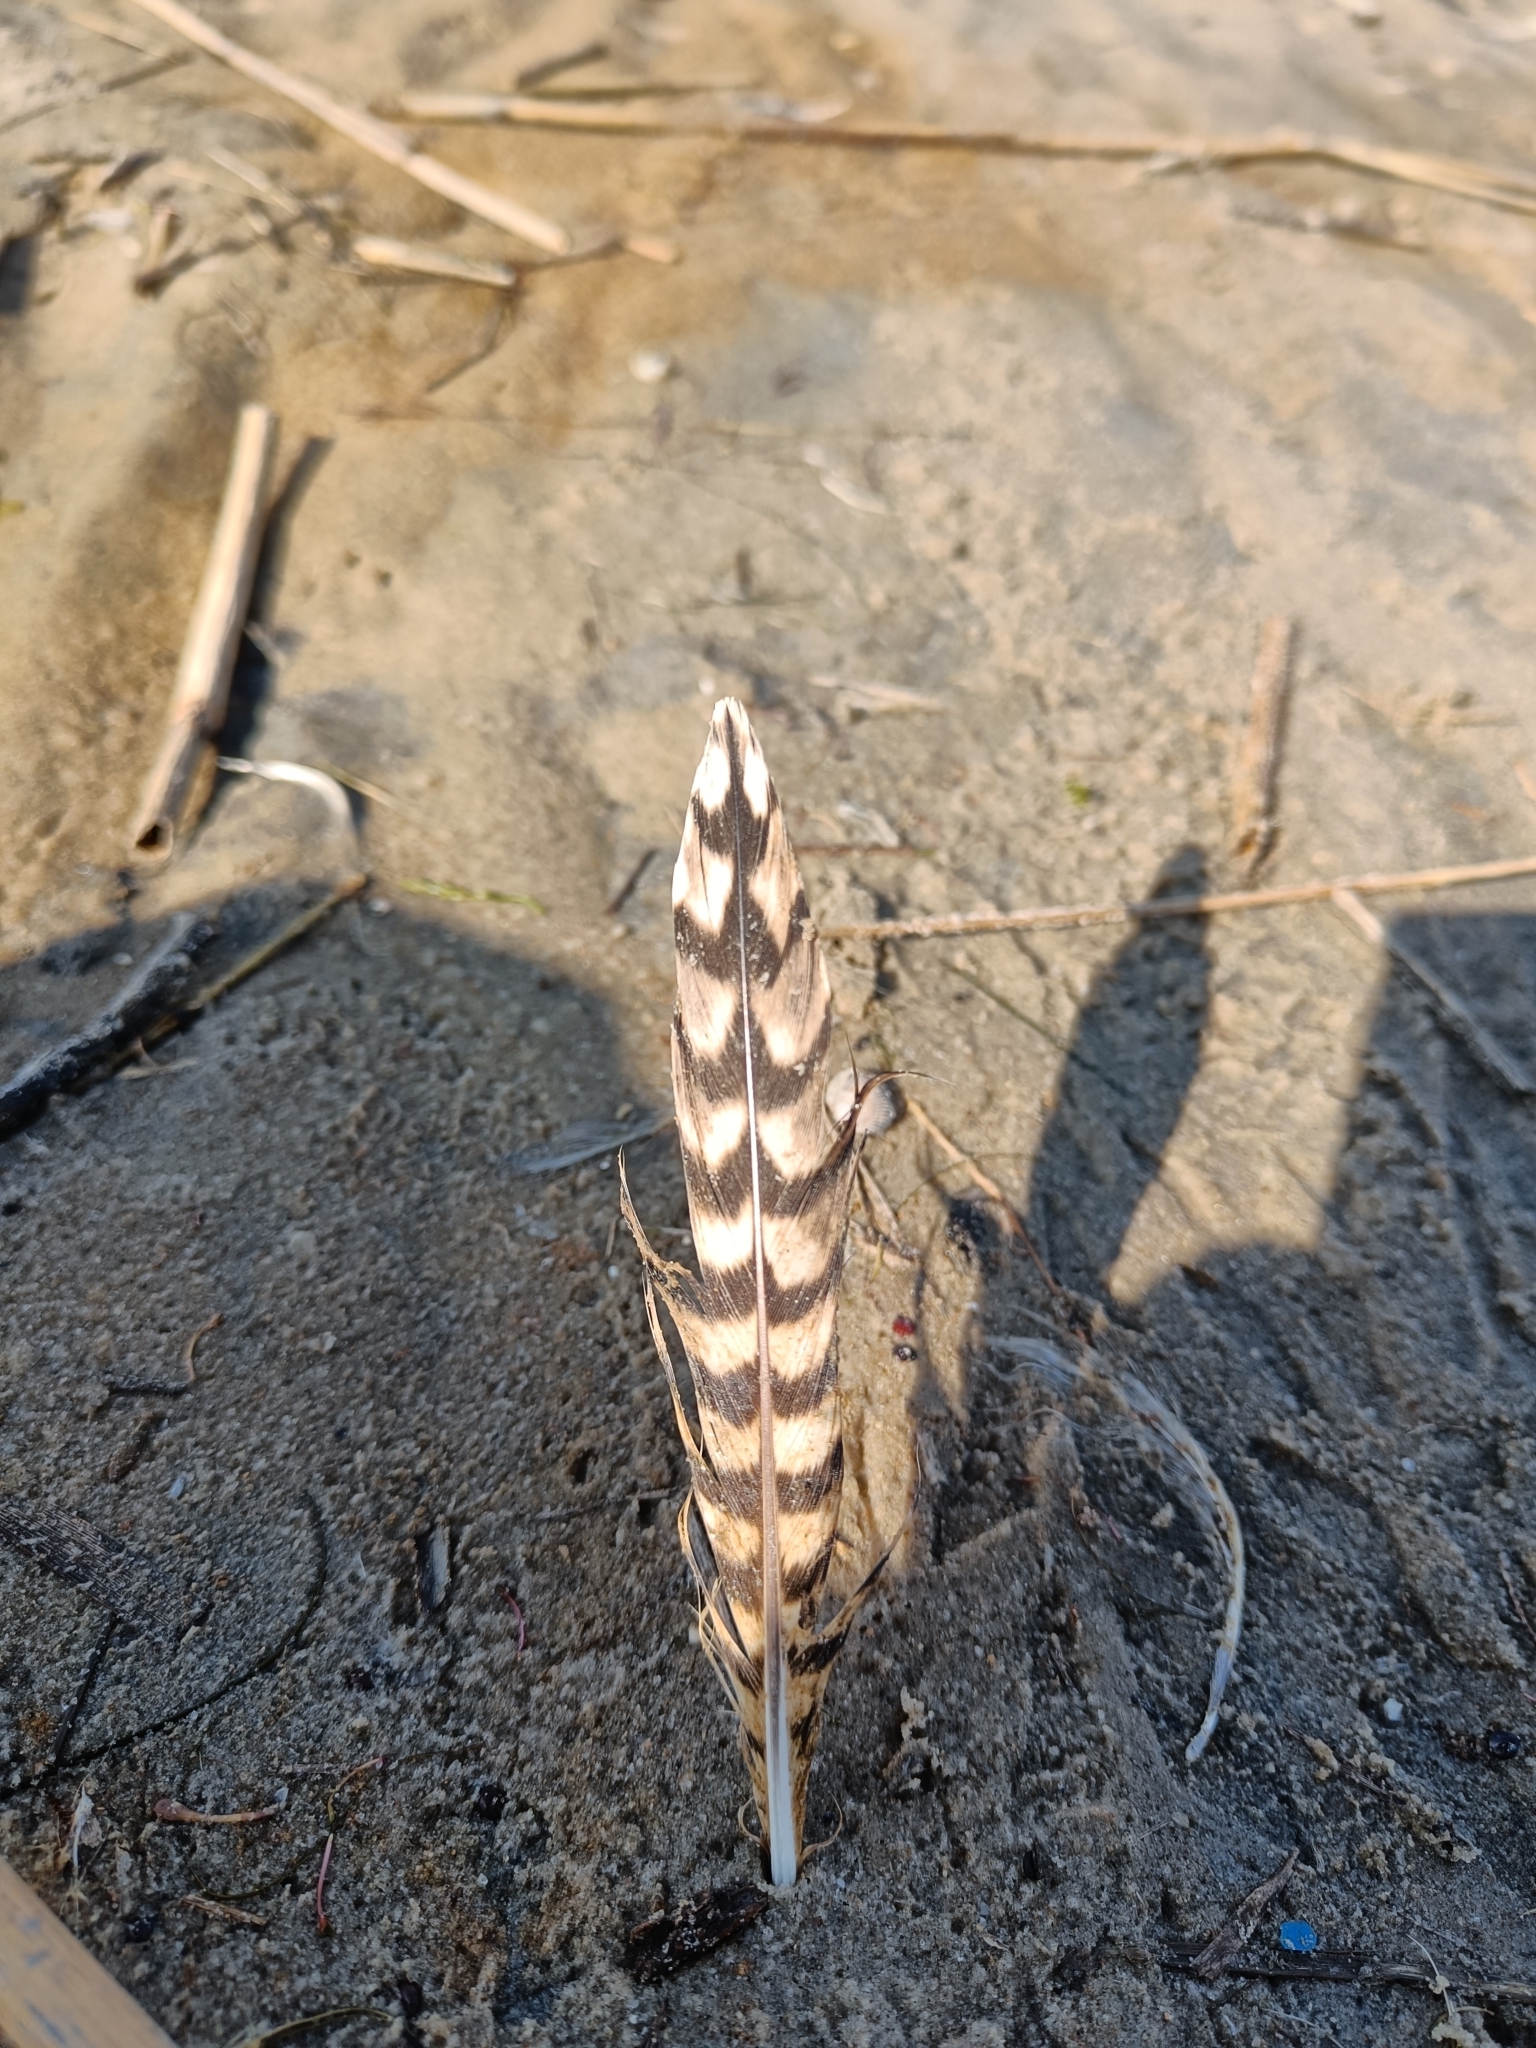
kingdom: Animalia
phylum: Chordata
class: Aves
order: Charadriiformes
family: Scolopacidae
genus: Numenius
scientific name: Numenius arquata
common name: Eurasian curlew
